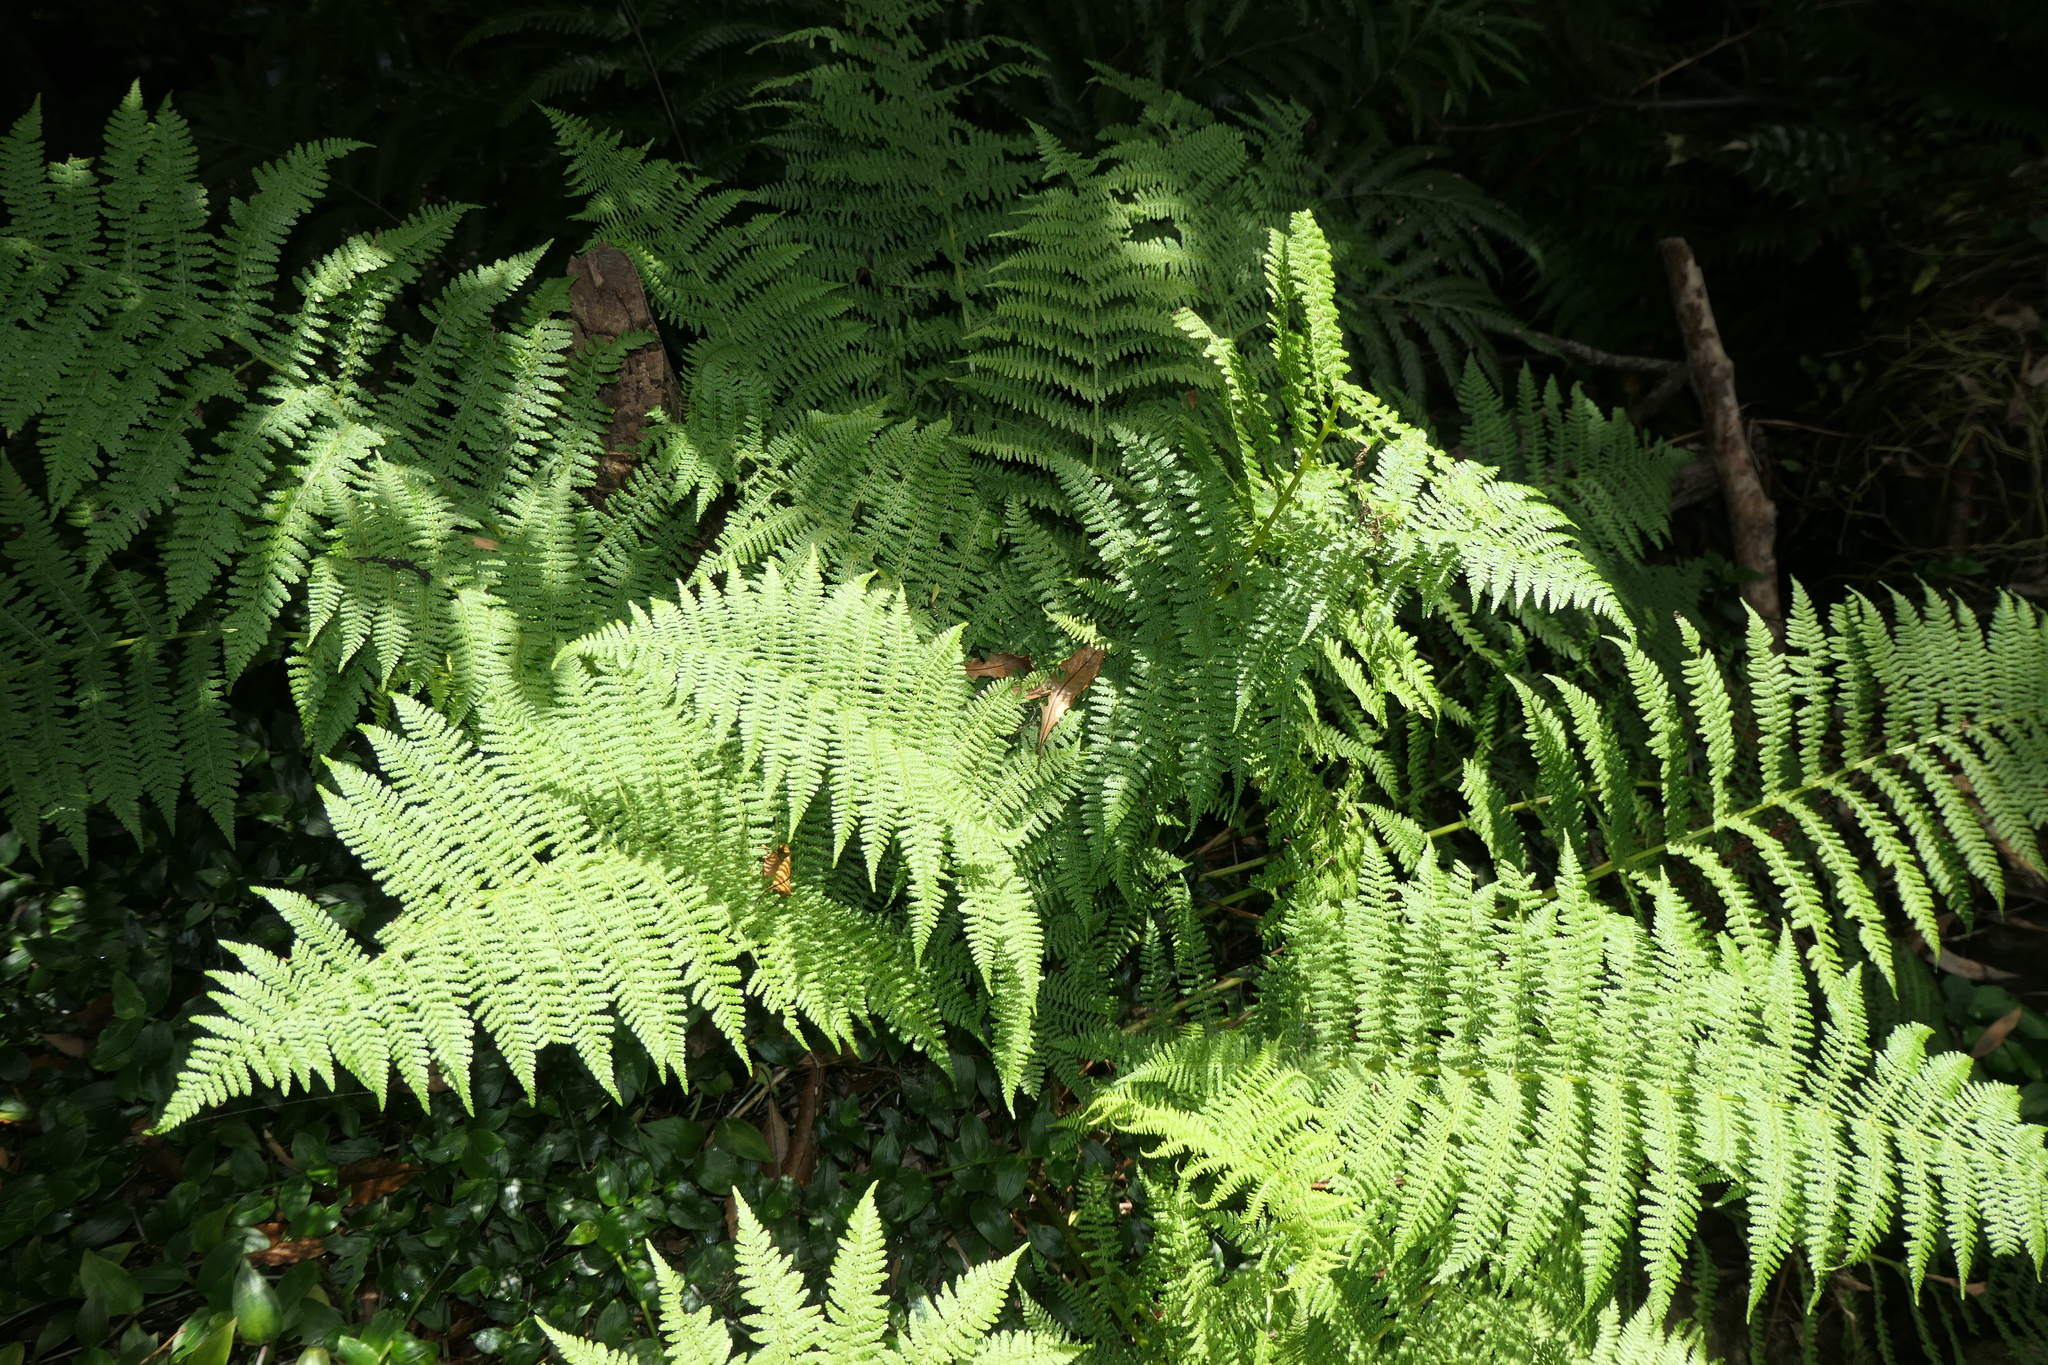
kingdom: Plantae
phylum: Tracheophyta
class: Polypodiopsida
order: Polypodiales
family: Athyriaceae
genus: Athyrium
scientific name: Athyrium filix-femina
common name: Lady fern
